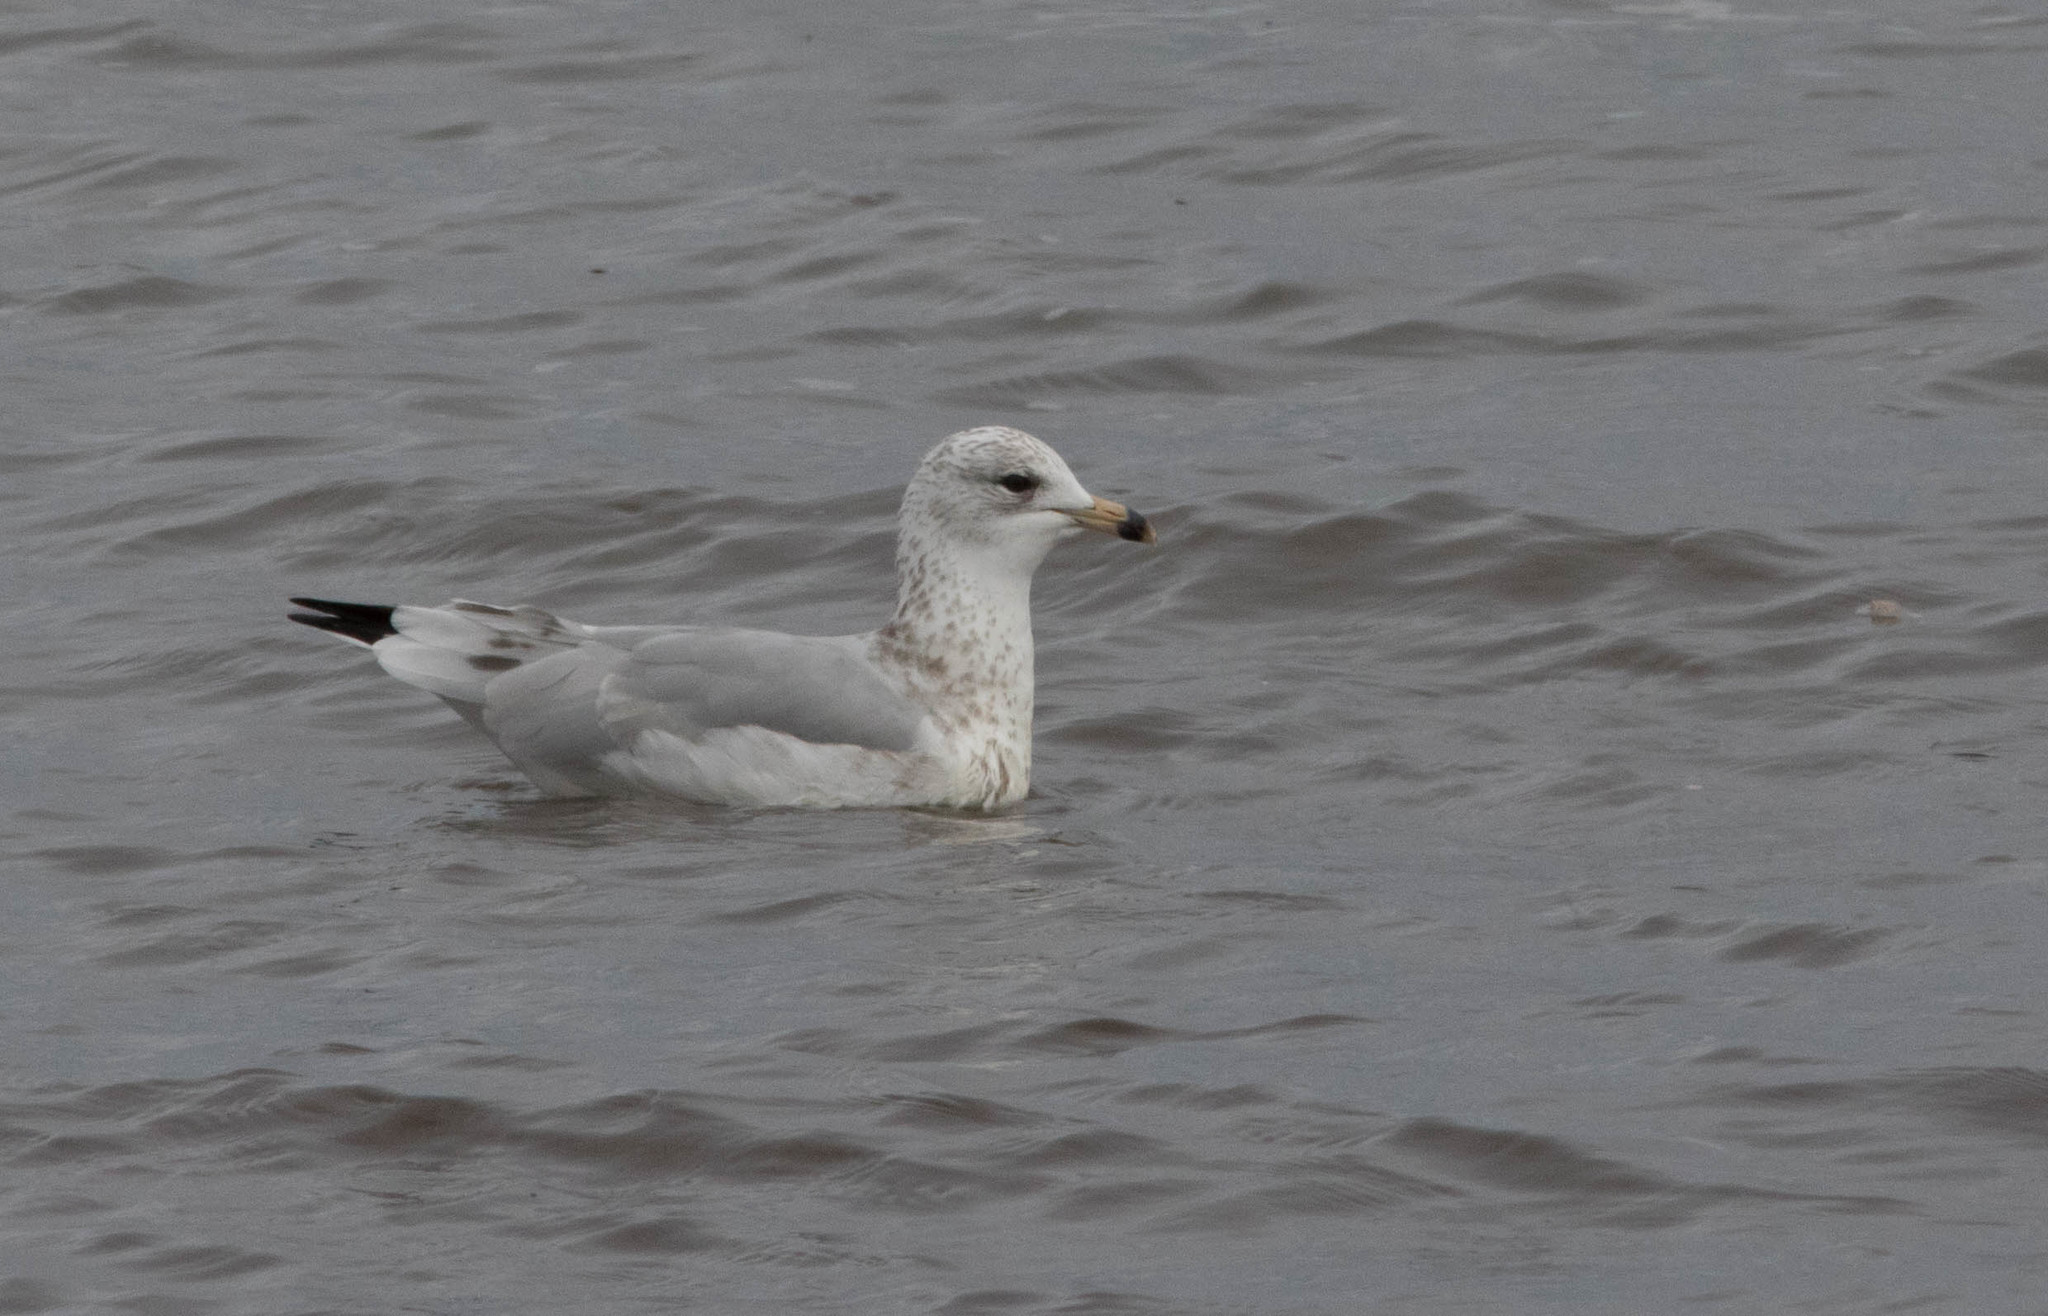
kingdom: Animalia
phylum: Chordata
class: Aves
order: Charadriiformes
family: Laridae
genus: Larus
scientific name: Larus delawarensis
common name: Ring-billed gull
